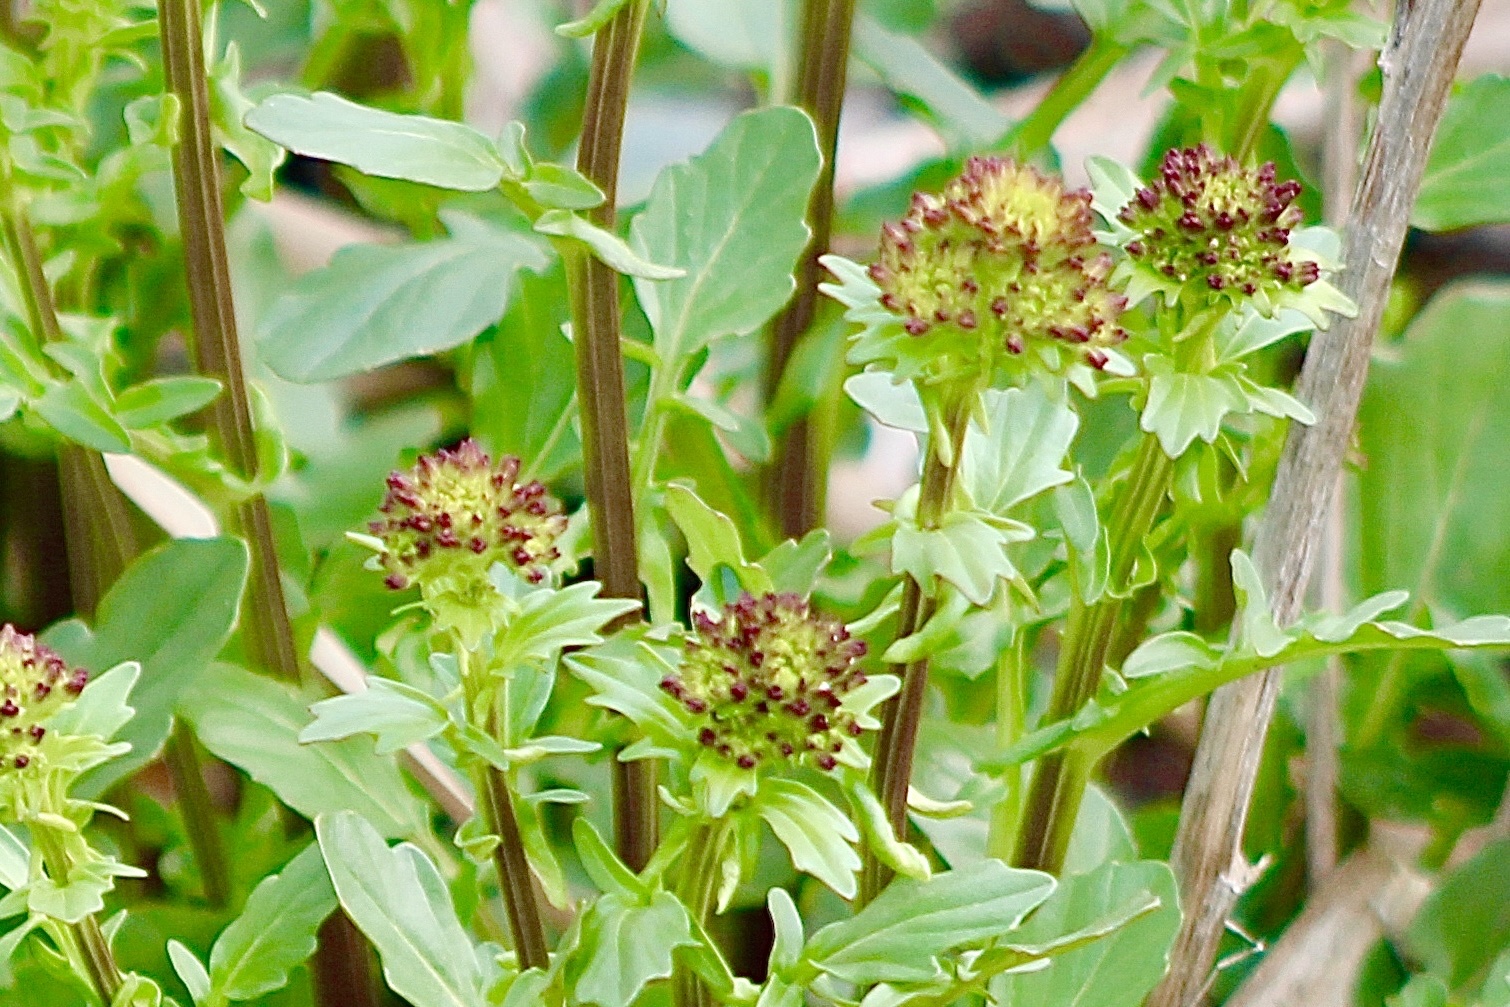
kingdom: Plantae
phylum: Tracheophyta
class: Magnoliopsida
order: Brassicales
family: Brassicaceae
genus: Barbarea
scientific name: Barbarea vulgaris
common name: Cressy-greens
